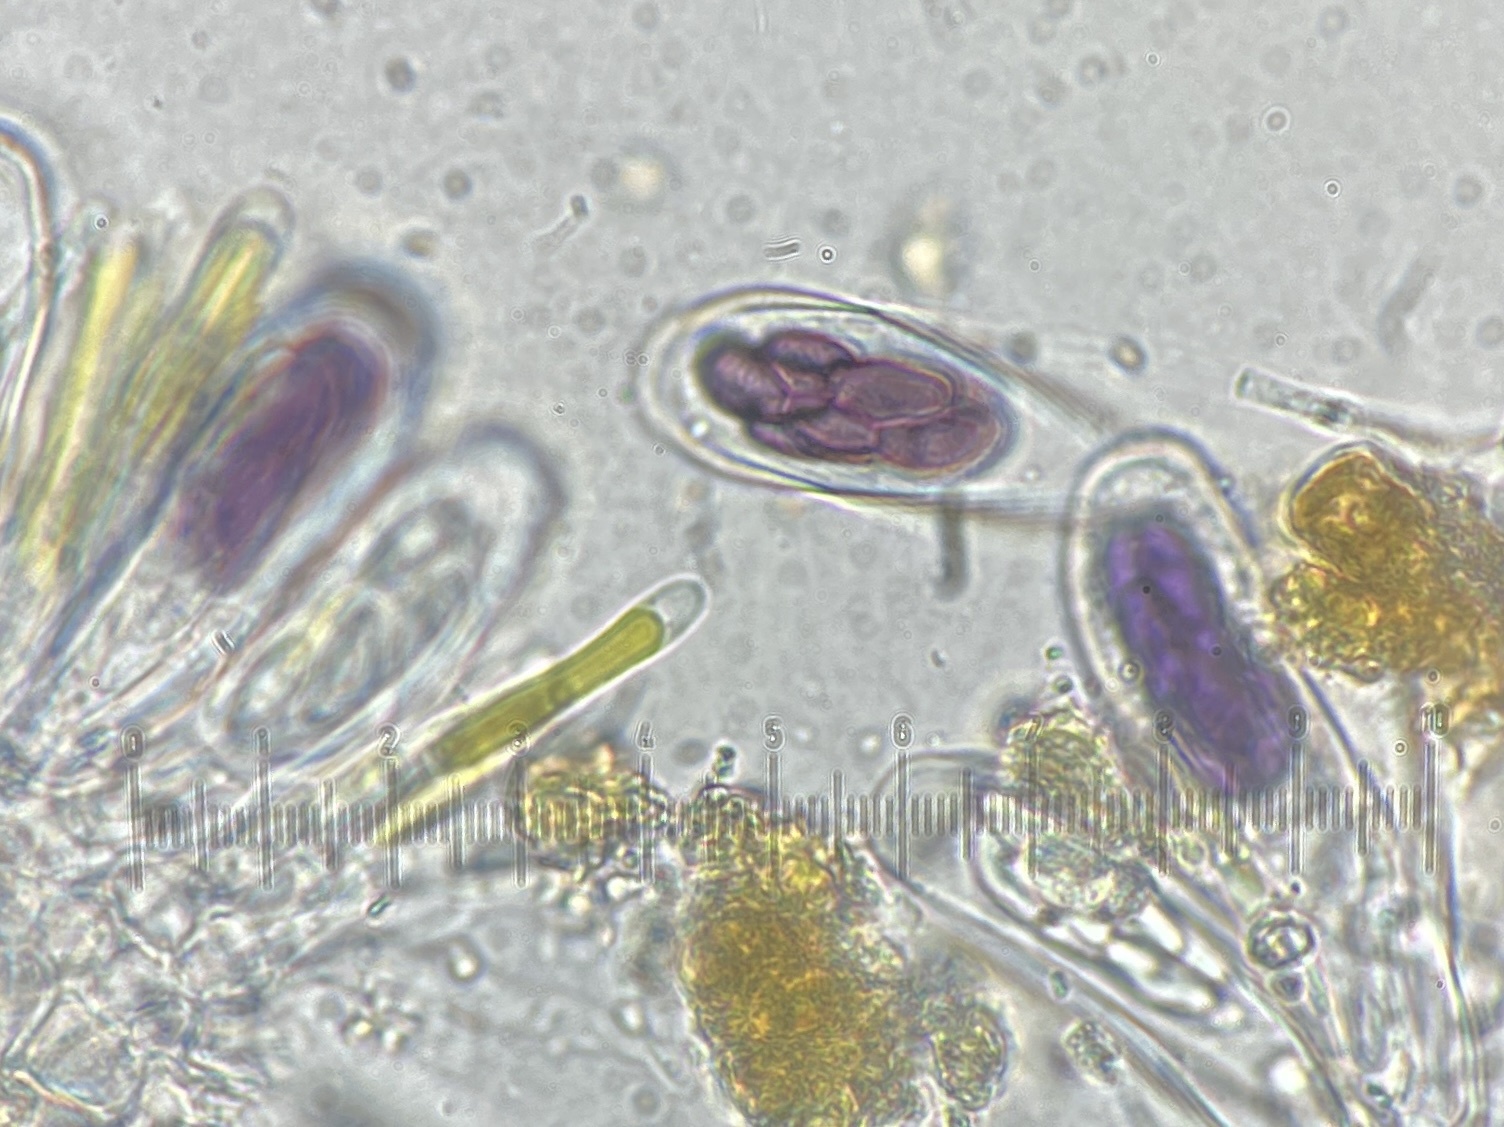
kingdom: Fungi
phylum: Ascomycota
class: Pezizomycetes
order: Pezizales
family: Ascobolaceae
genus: Saccobolus
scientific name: Saccobolus minimus
